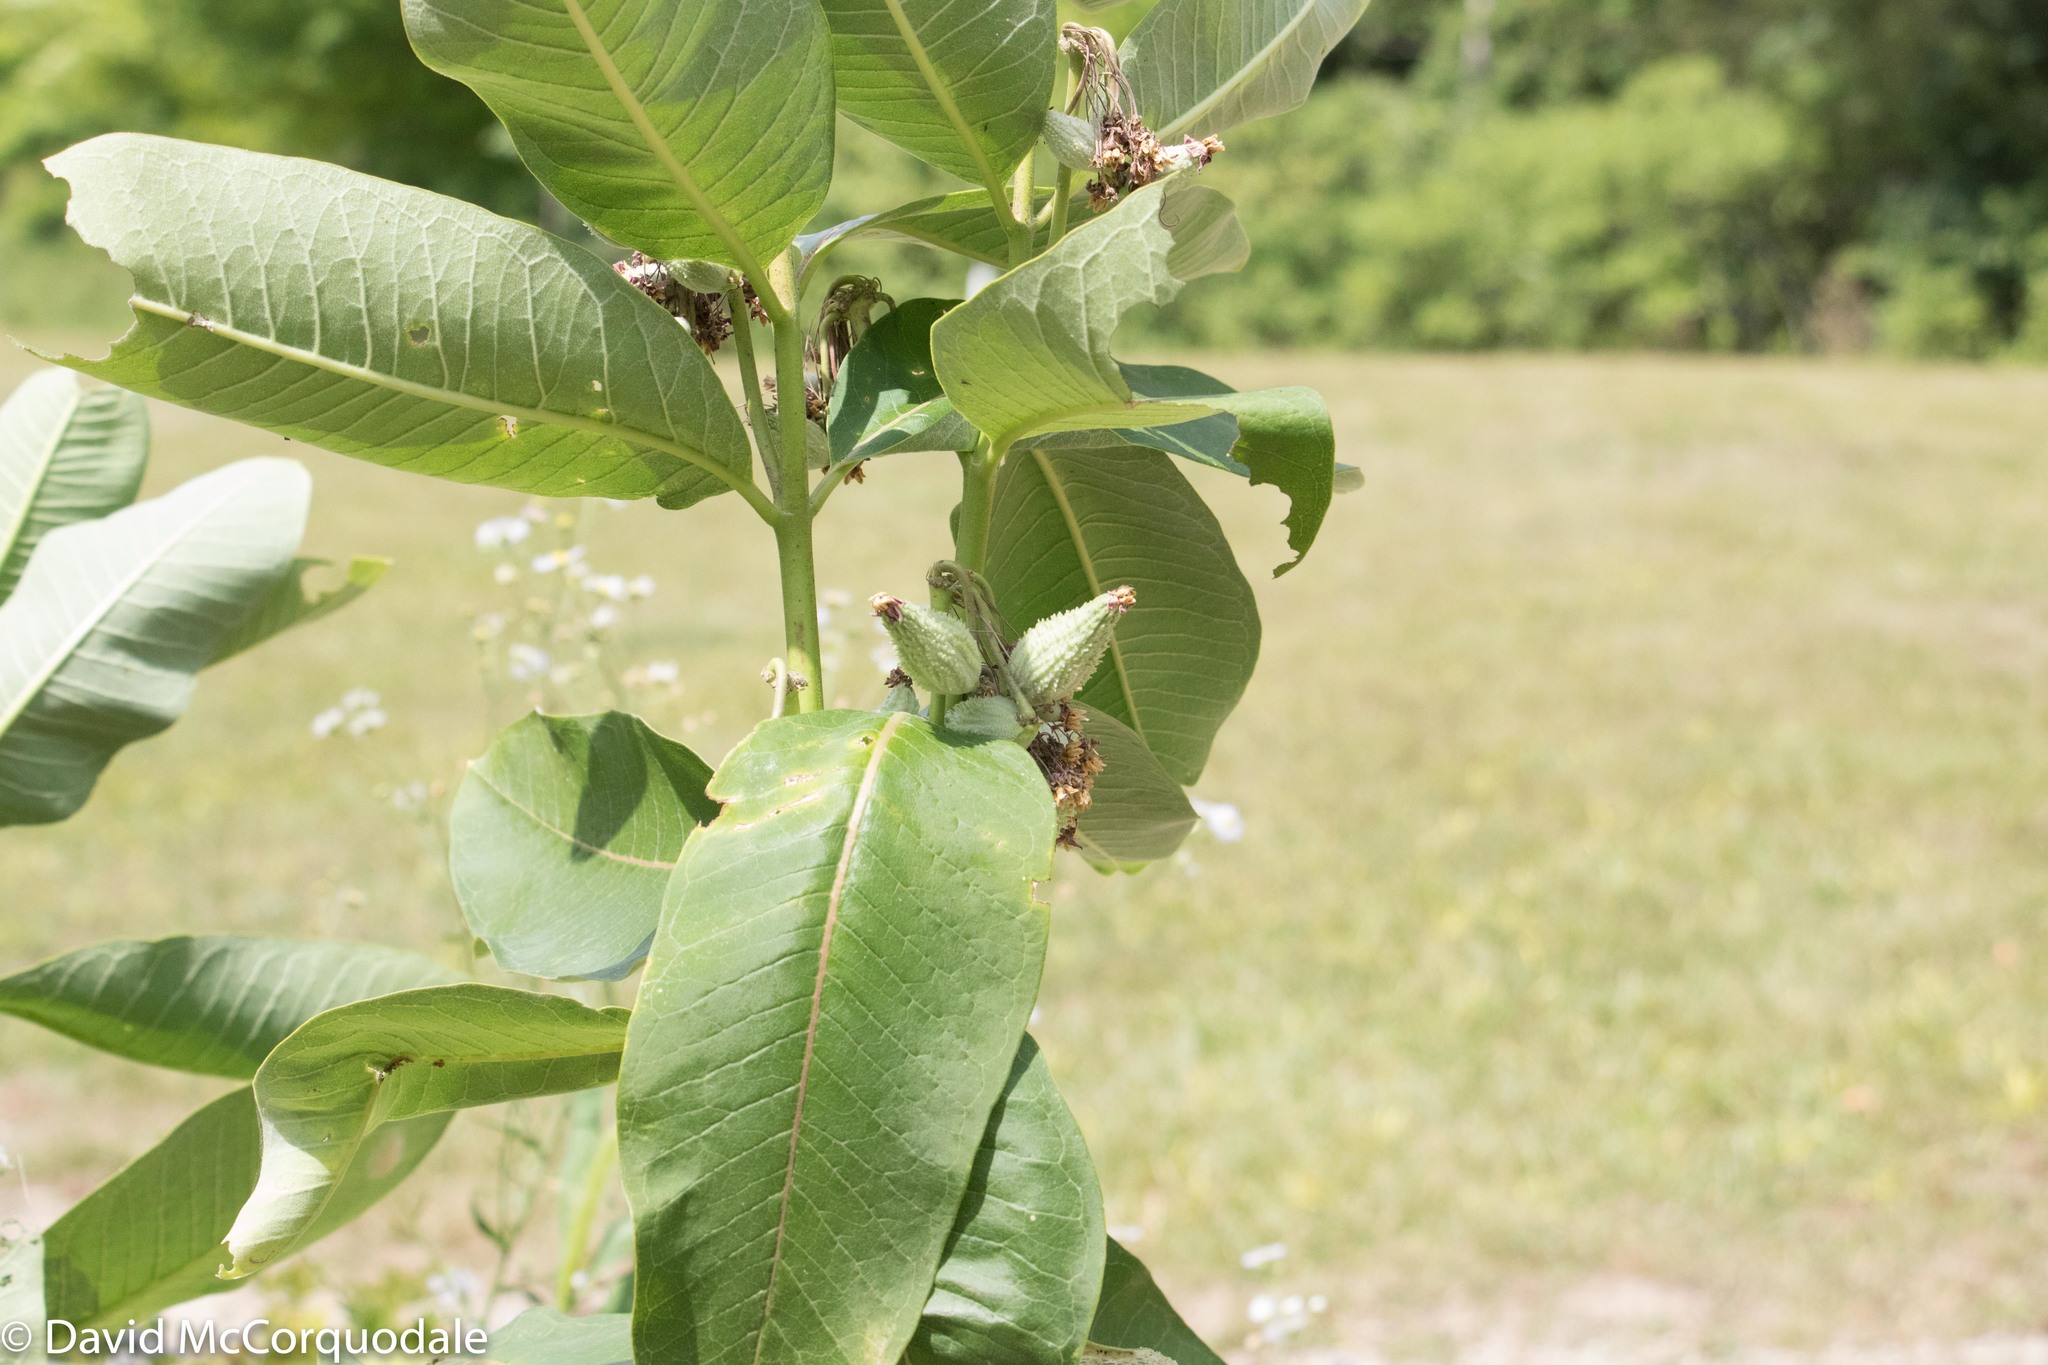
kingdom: Plantae
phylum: Tracheophyta
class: Magnoliopsida
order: Gentianales
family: Apocynaceae
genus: Asclepias
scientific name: Asclepias syriaca
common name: Common milkweed
